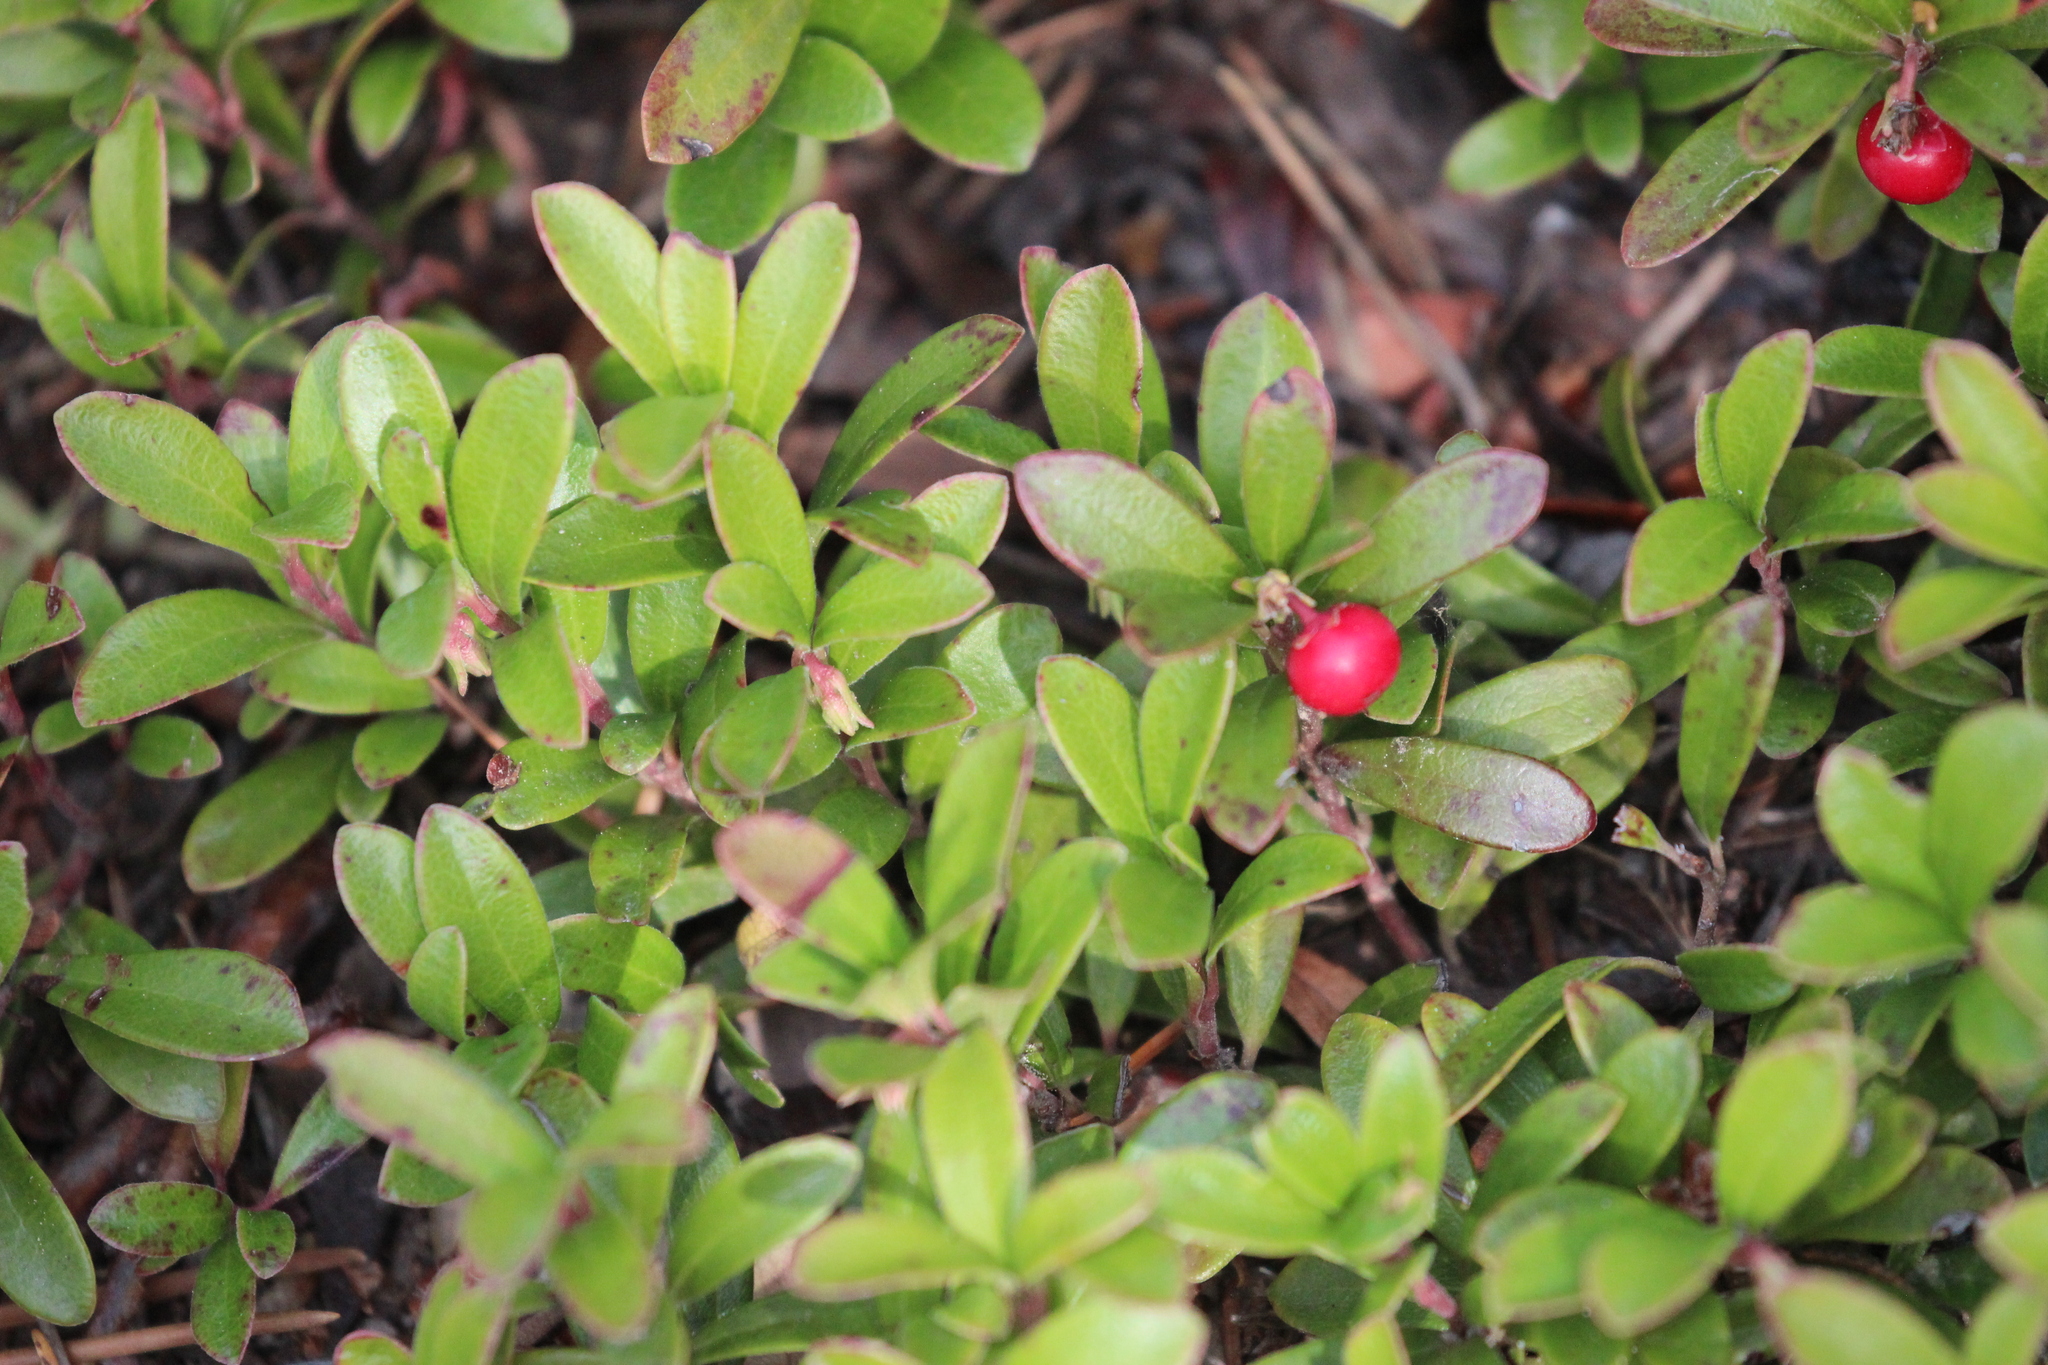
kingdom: Plantae
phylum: Tracheophyta
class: Magnoliopsida
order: Ericales
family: Ericaceae
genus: Arctostaphylos
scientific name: Arctostaphylos uva-ursi
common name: Bearberry
